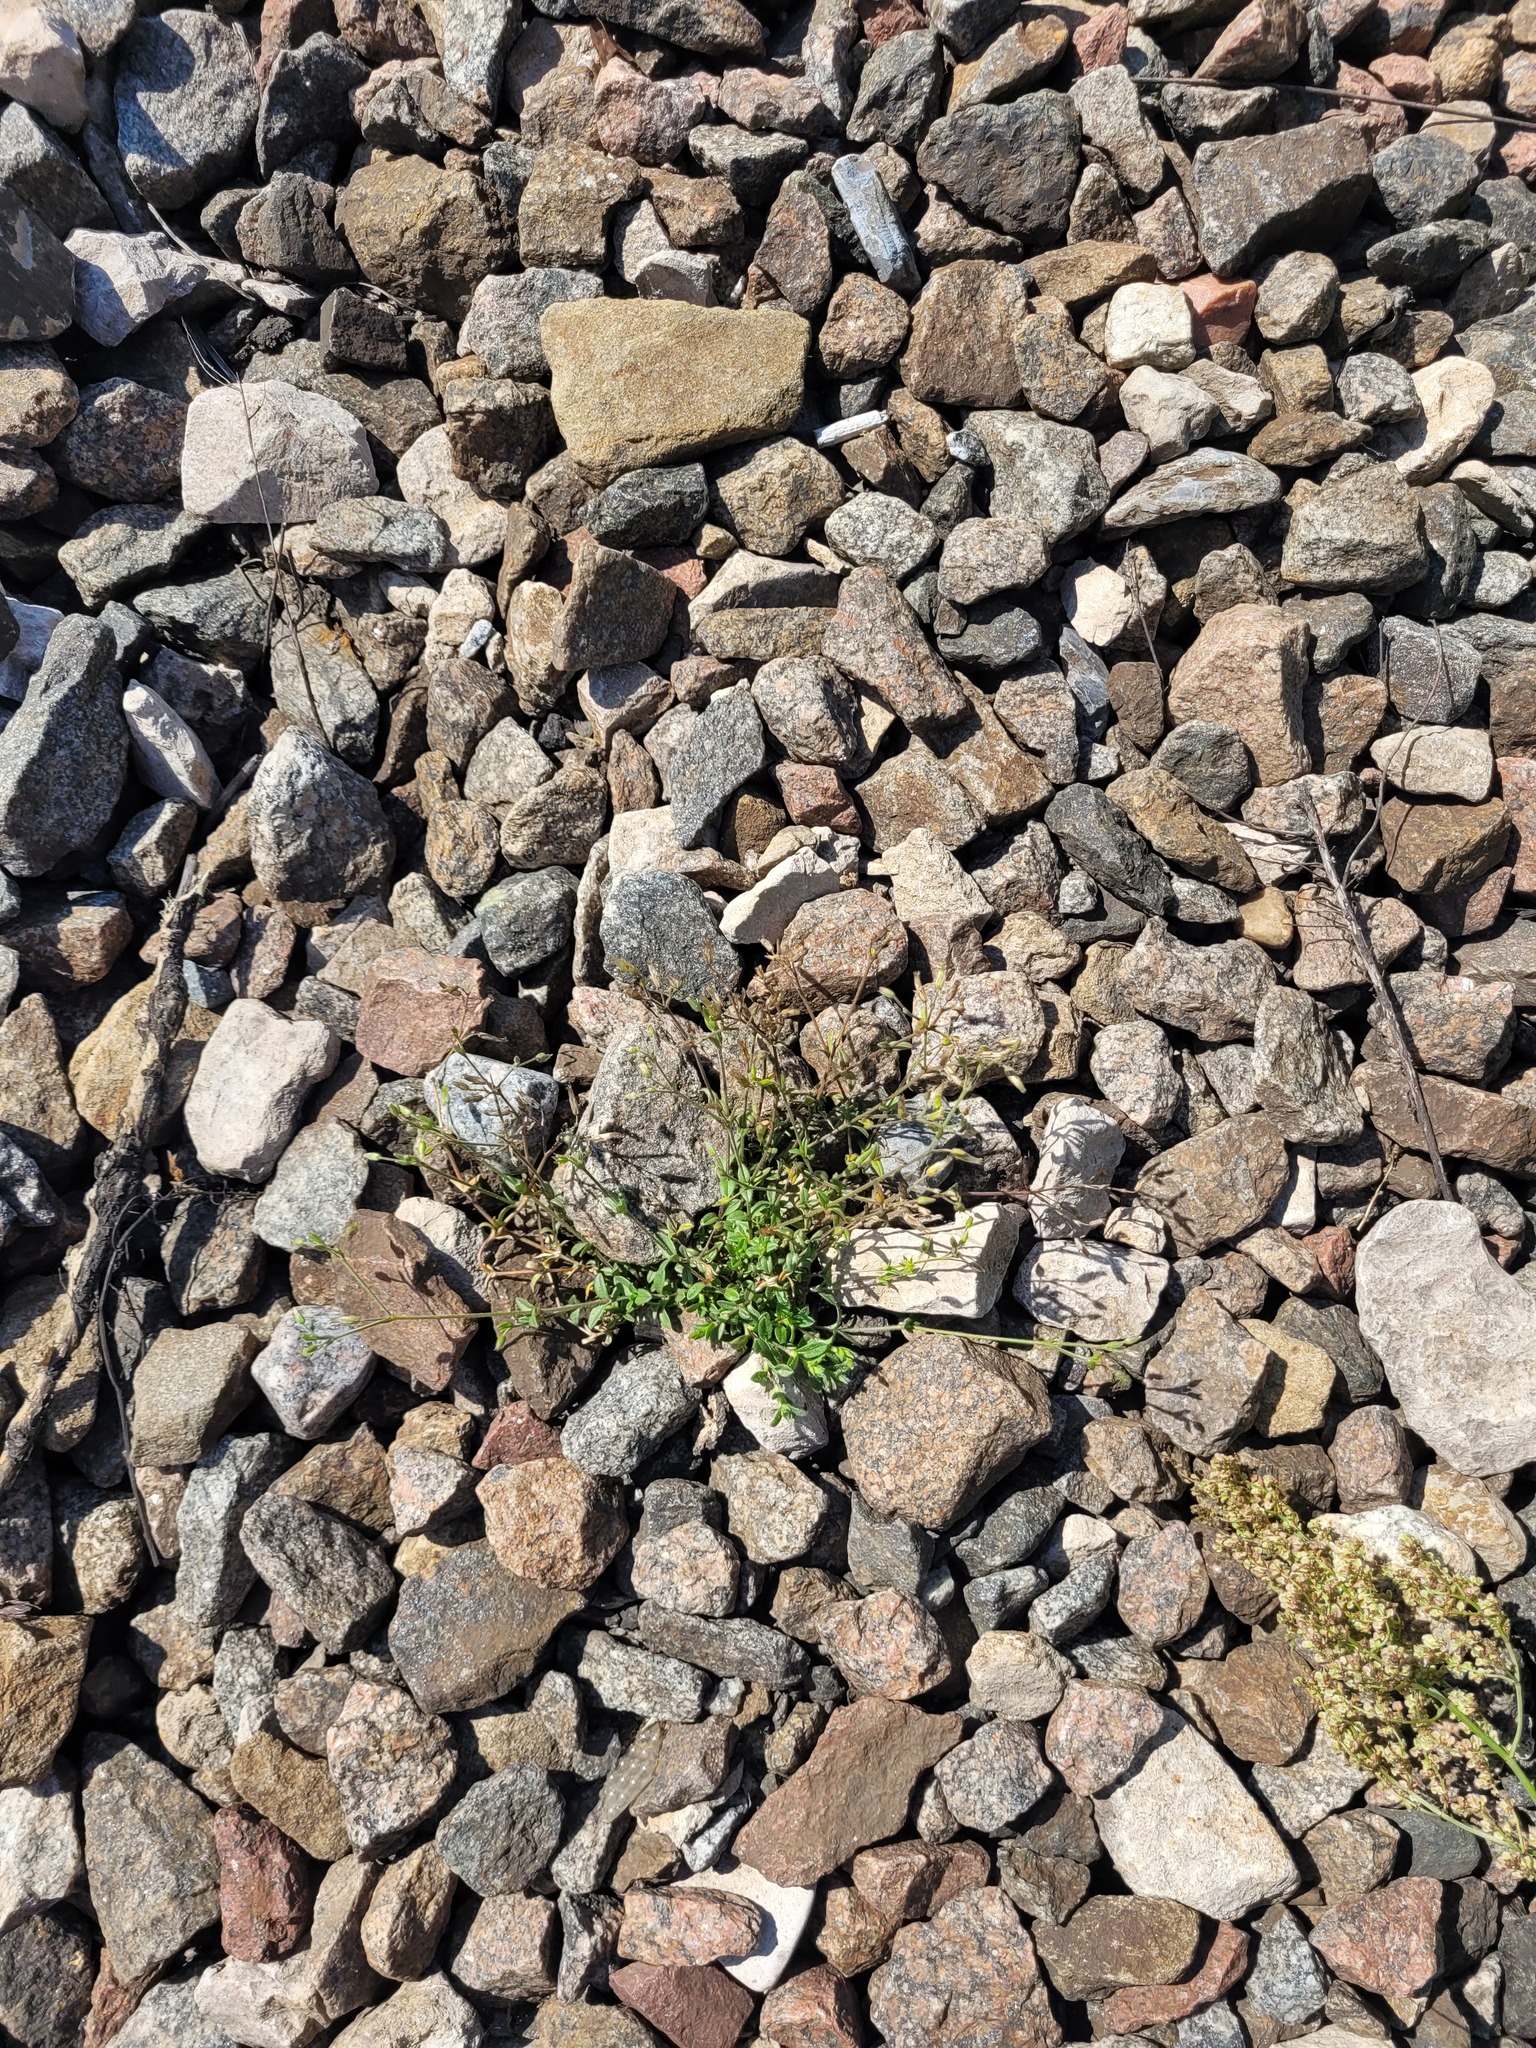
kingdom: Plantae
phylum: Tracheophyta
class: Magnoliopsida
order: Caryophyllales
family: Caryophyllaceae
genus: Cerastium
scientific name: Cerastium holosteoides
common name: Big chickweed
